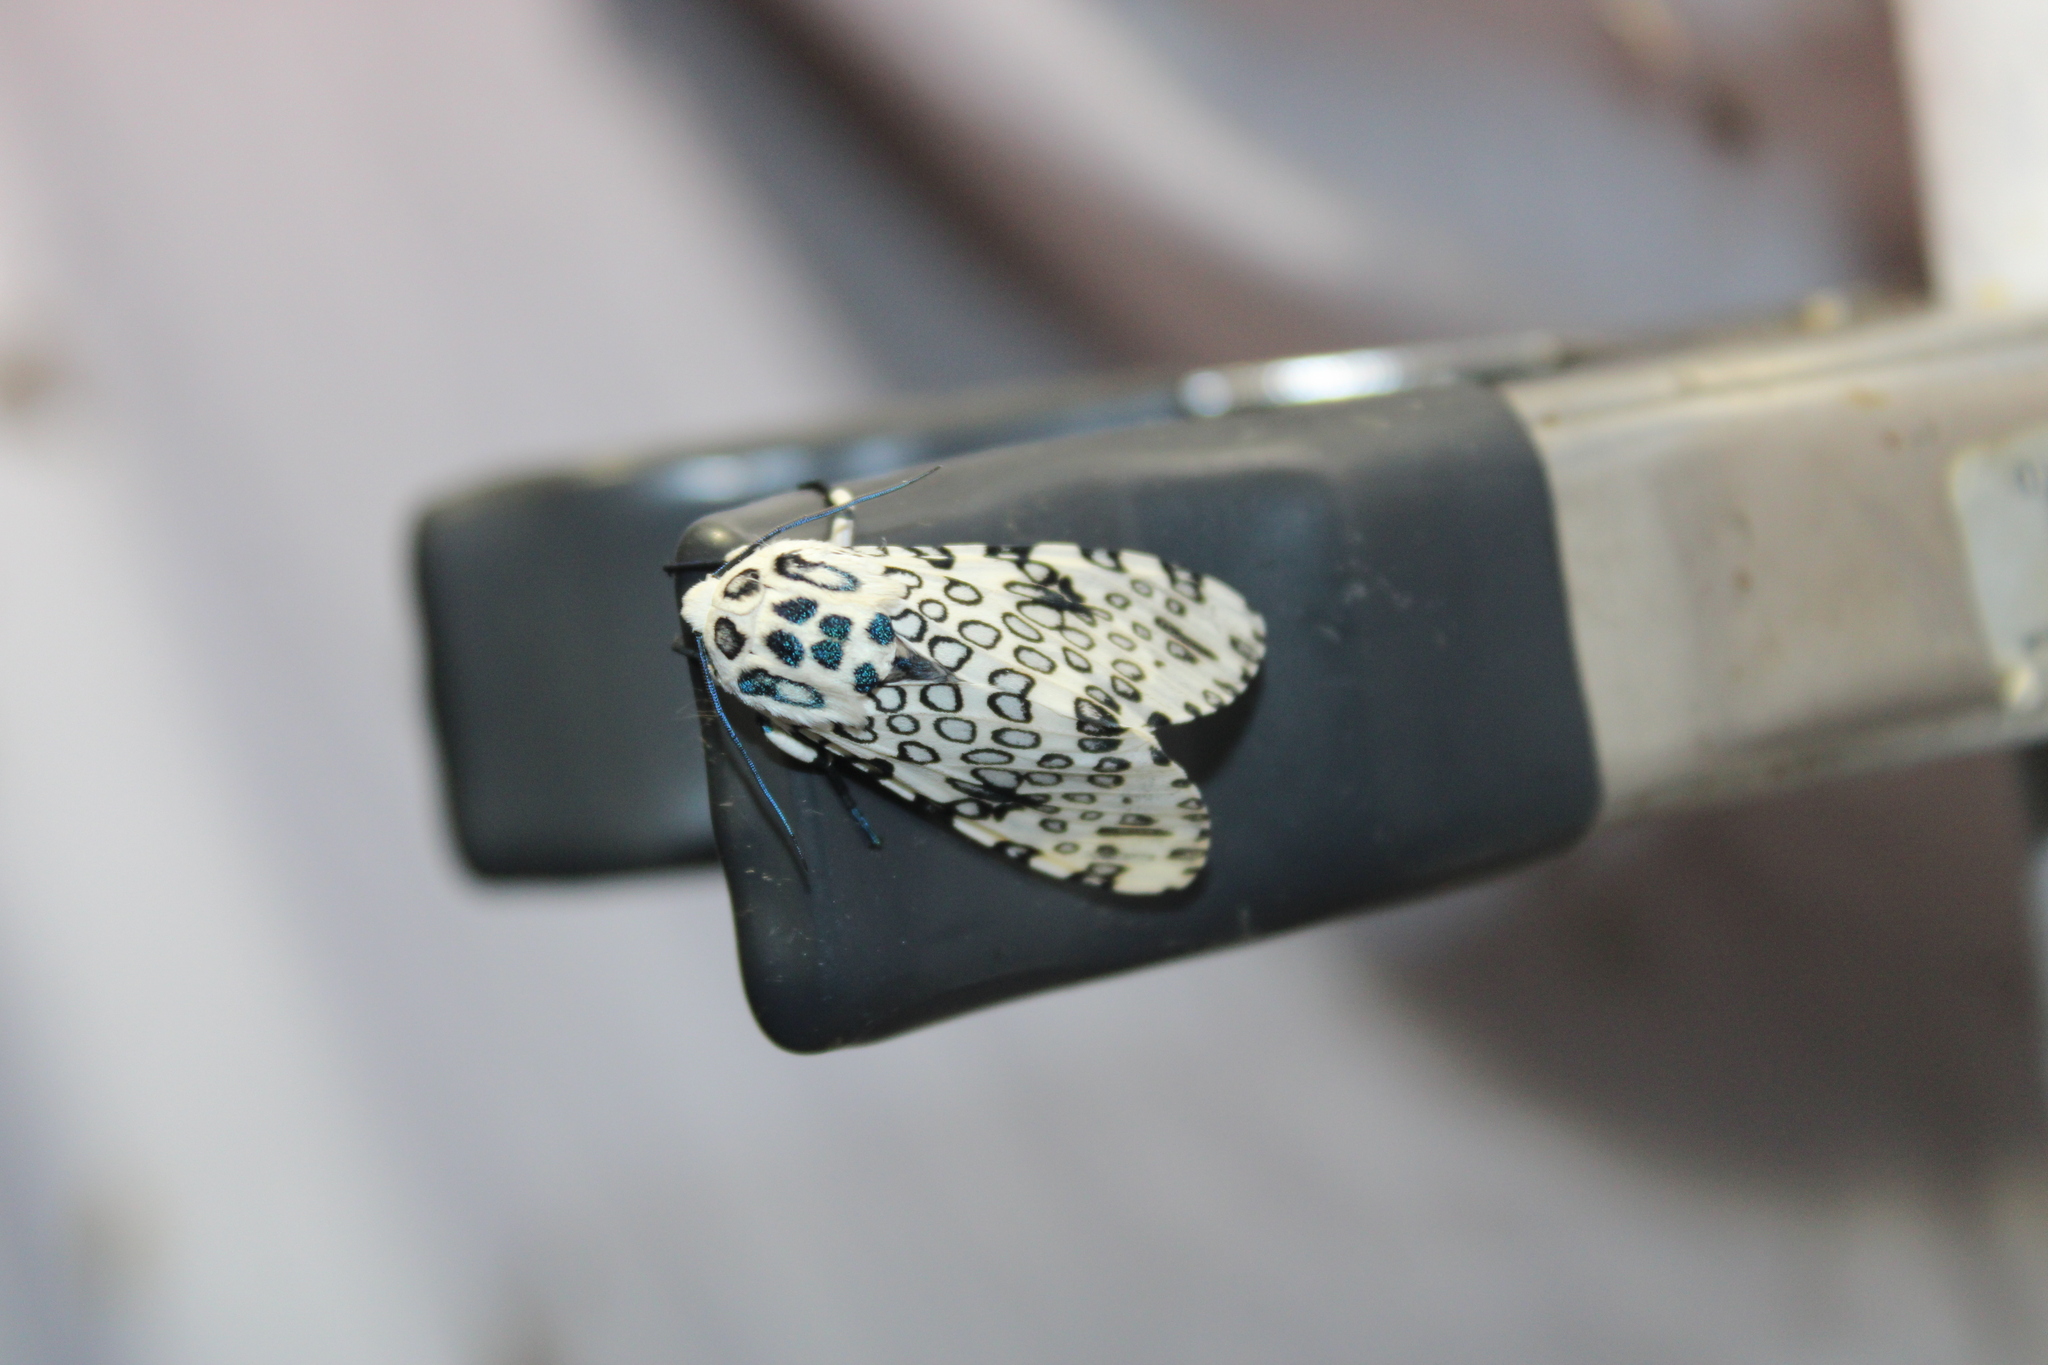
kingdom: Animalia
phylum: Arthropoda
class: Insecta
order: Lepidoptera
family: Erebidae
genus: Hypercompe
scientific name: Hypercompe scribonia
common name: Giant leopard moth
